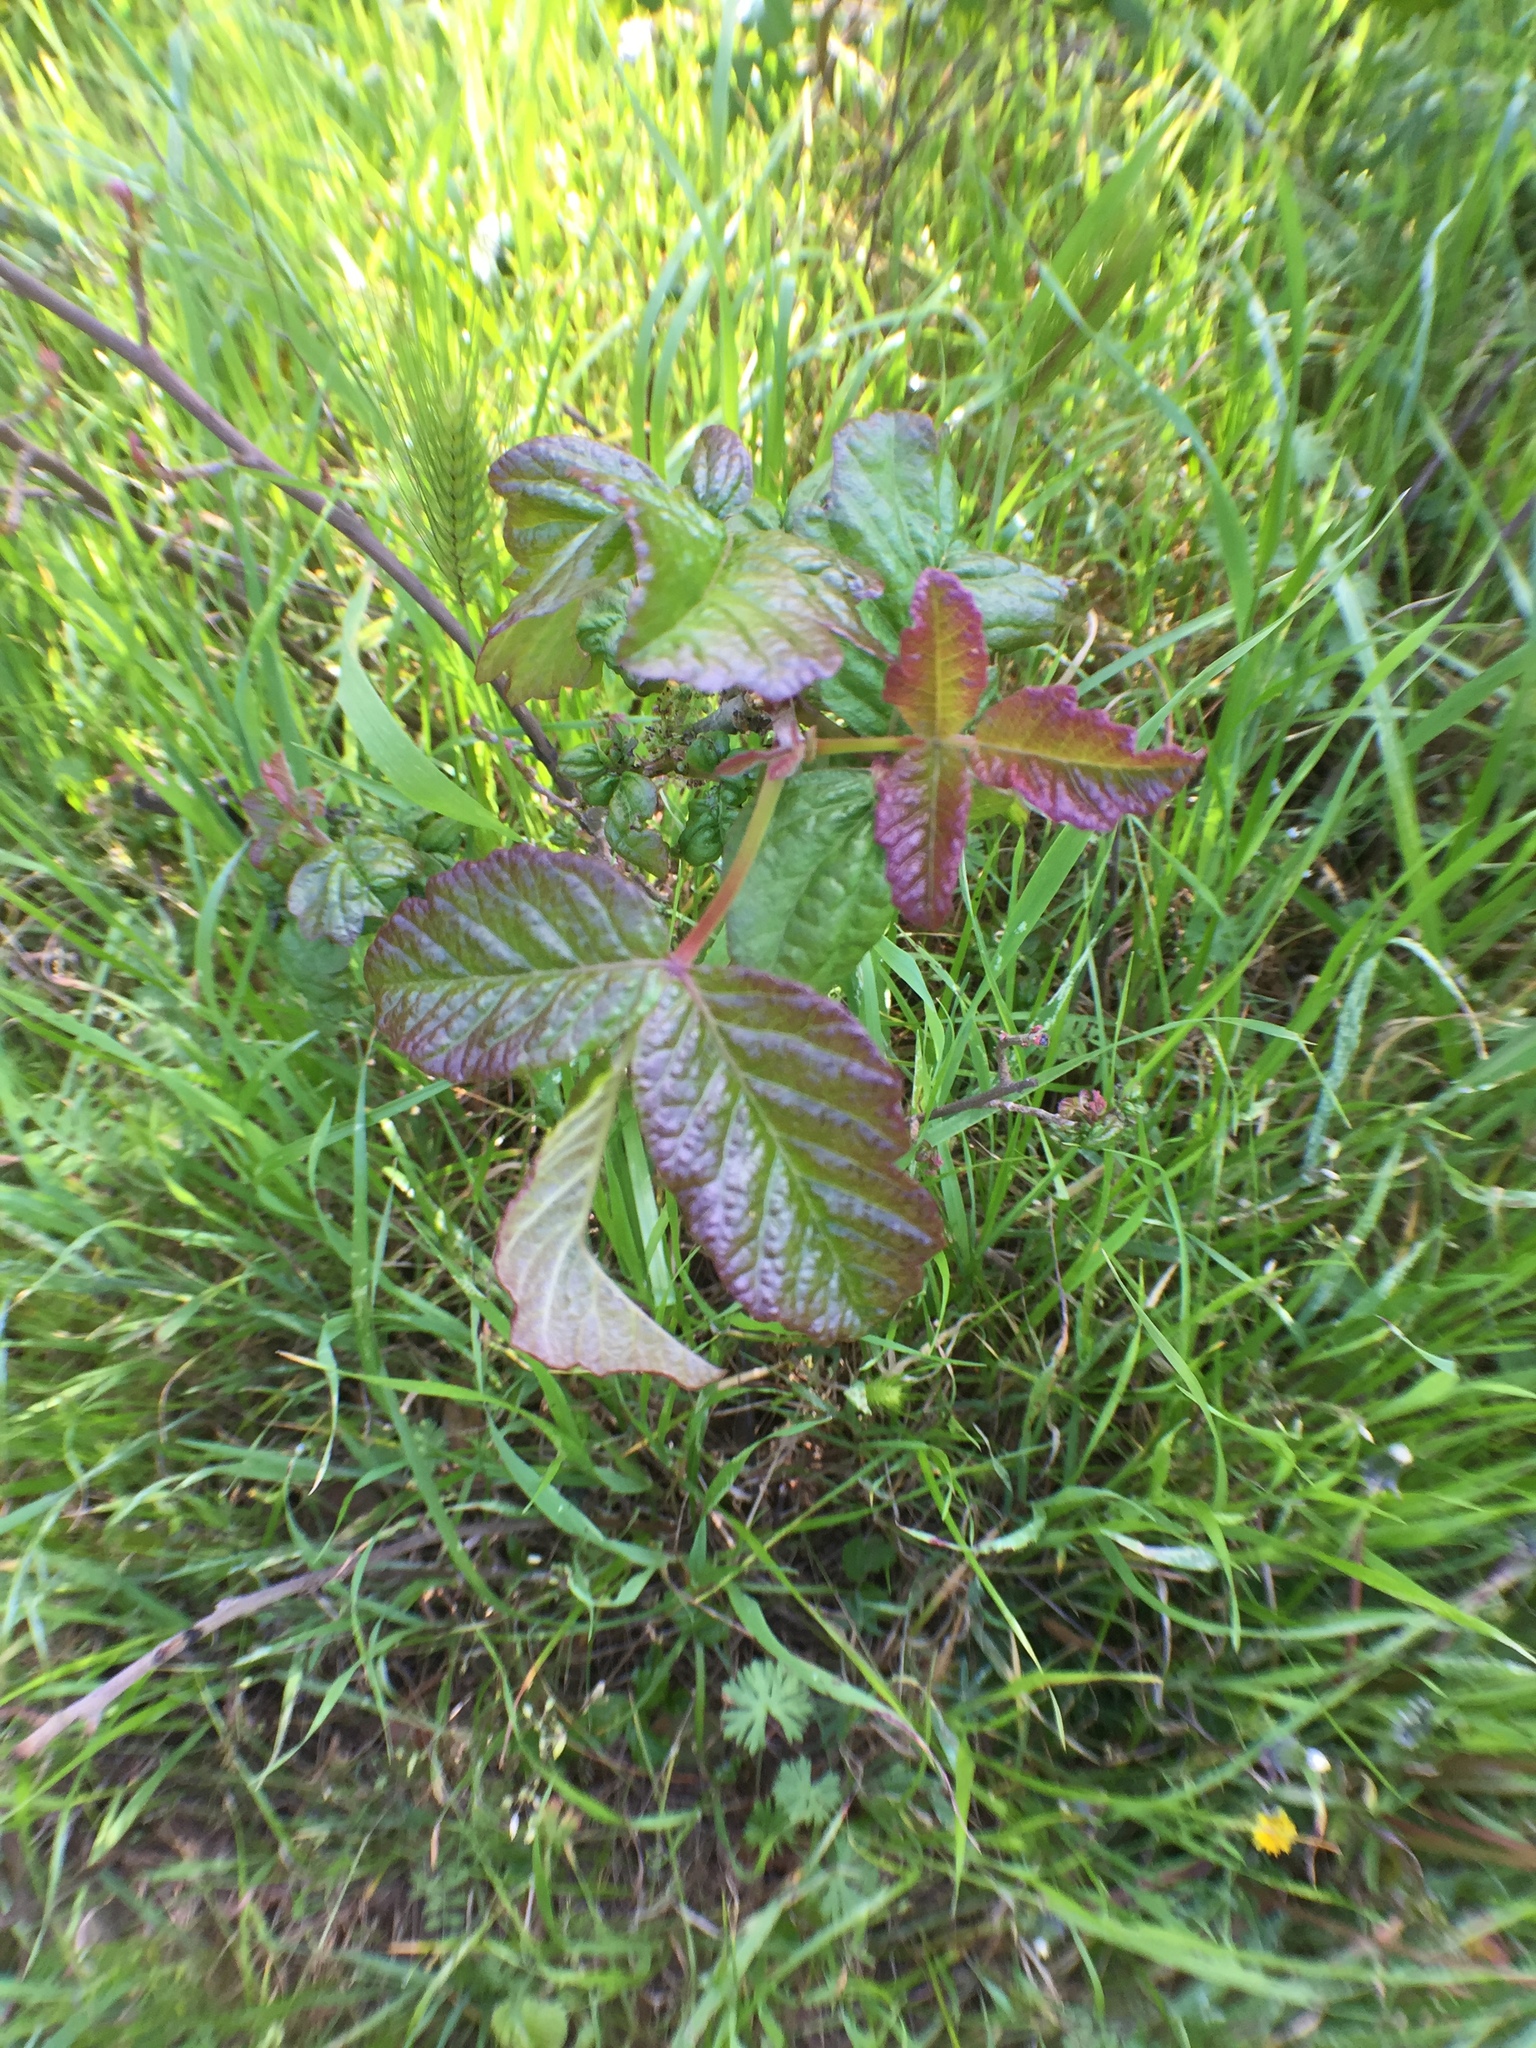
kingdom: Plantae
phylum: Tracheophyta
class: Magnoliopsida
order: Sapindales
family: Anacardiaceae
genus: Toxicodendron
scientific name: Toxicodendron diversilobum
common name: Pacific poison-oak
